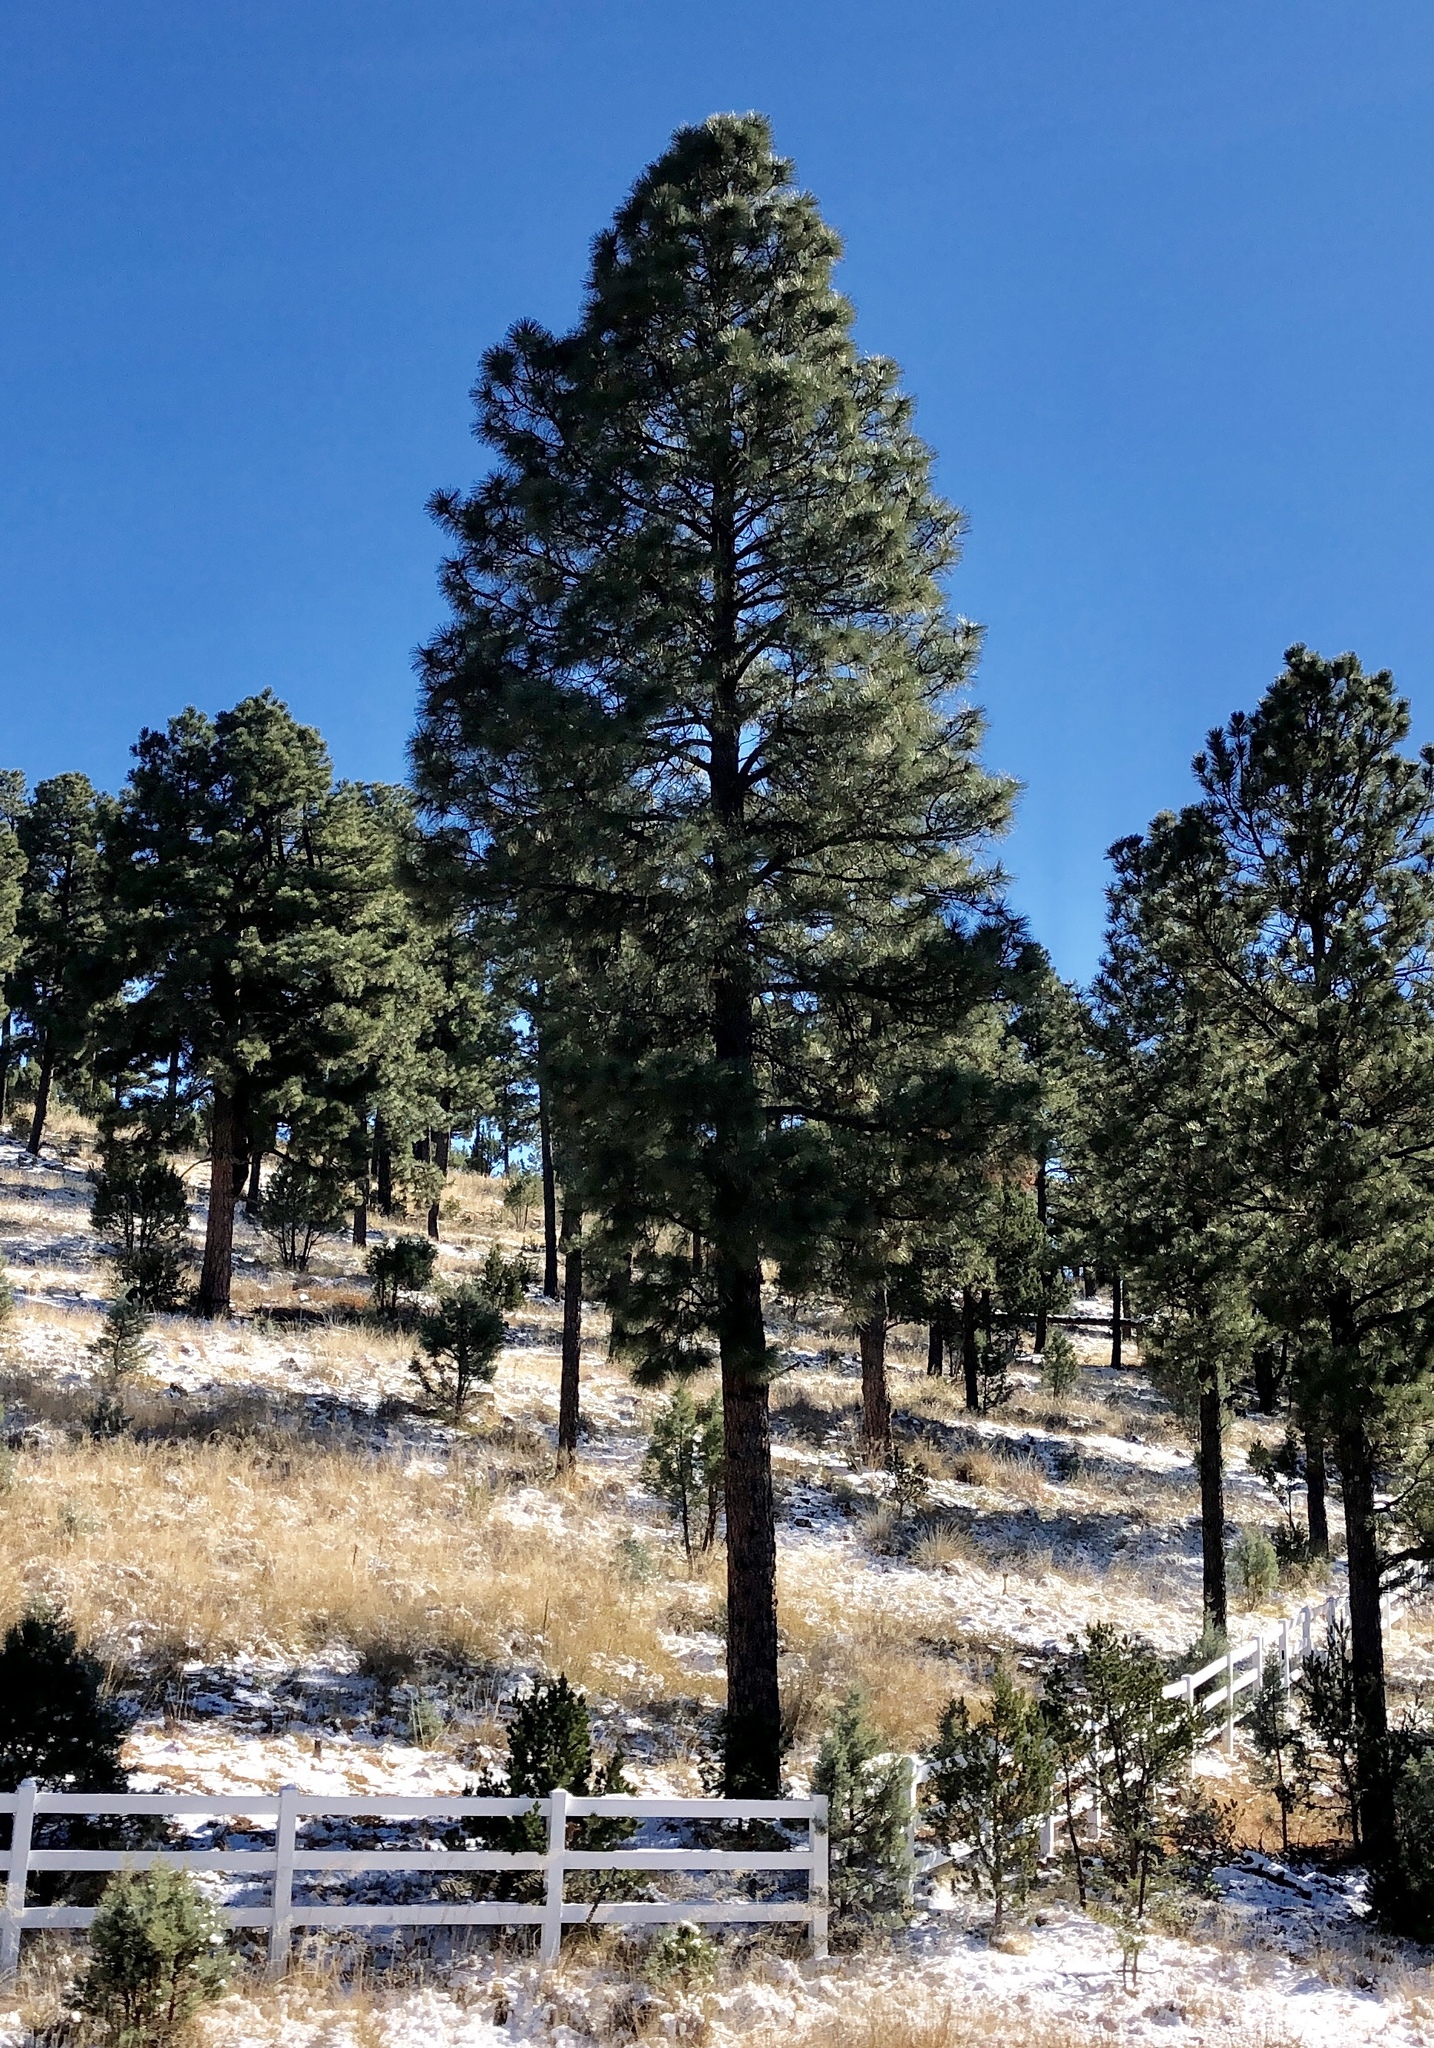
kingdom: Plantae
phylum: Tracheophyta
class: Pinopsida
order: Pinales
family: Pinaceae
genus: Pinus
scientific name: Pinus ponderosa
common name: Western yellow-pine
